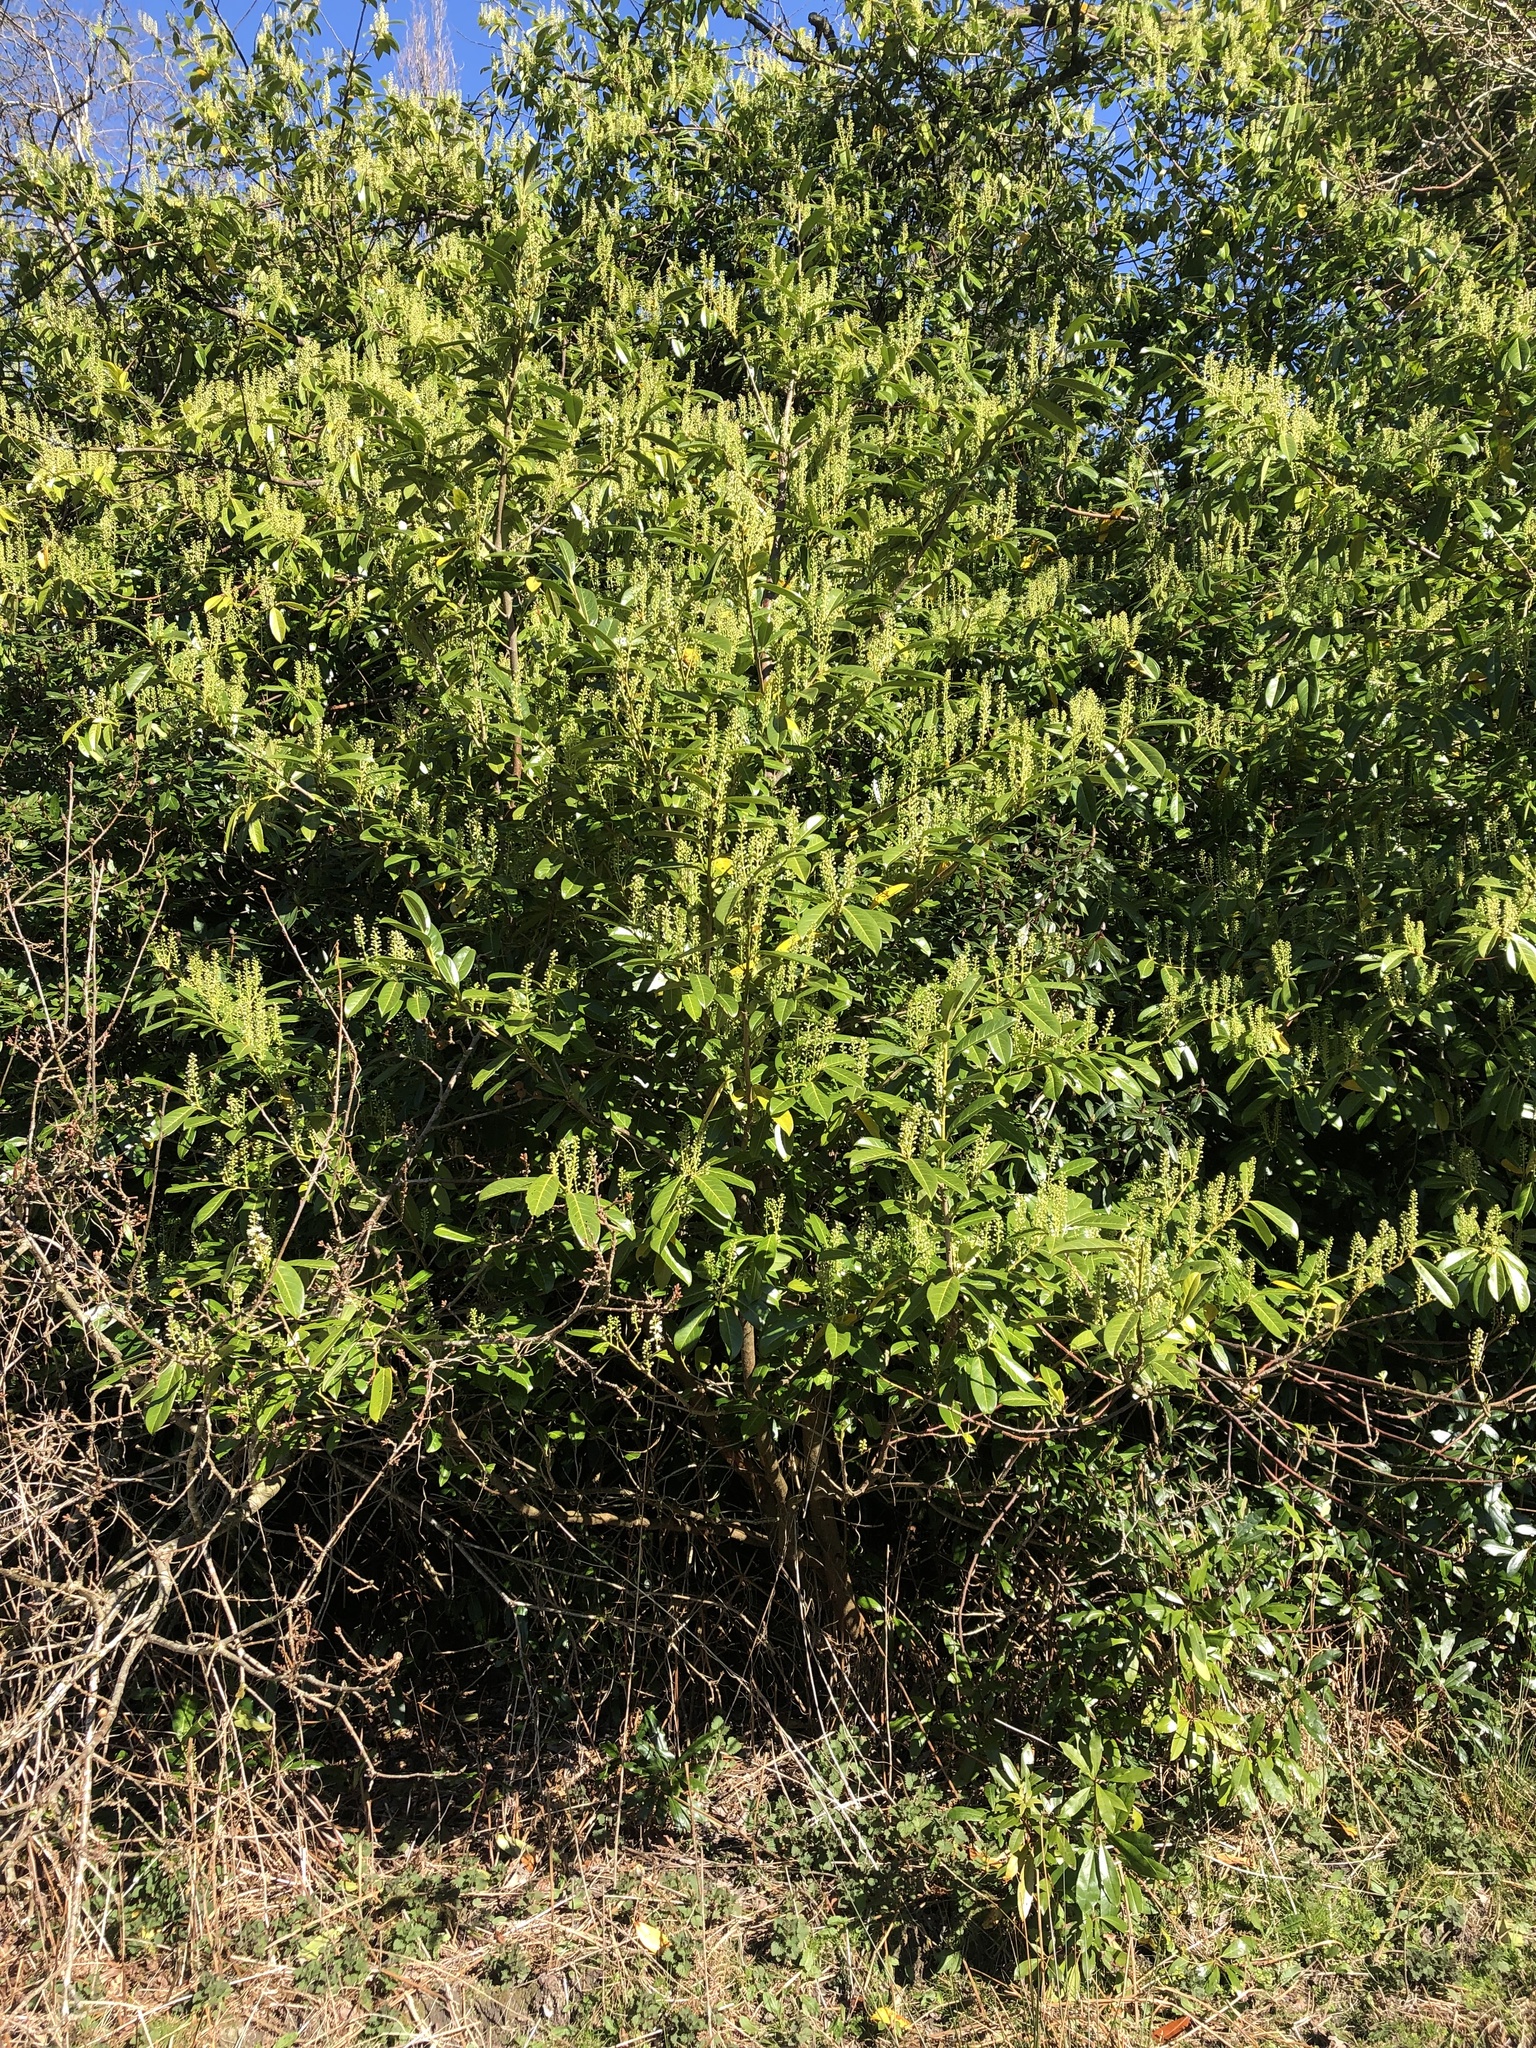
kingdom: Plantae
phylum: Tracheophyta
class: Magnoliopsida
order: Rosales
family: Rosaceae
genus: Prunus
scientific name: Prunus laurocerasus
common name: Cherry laurel
